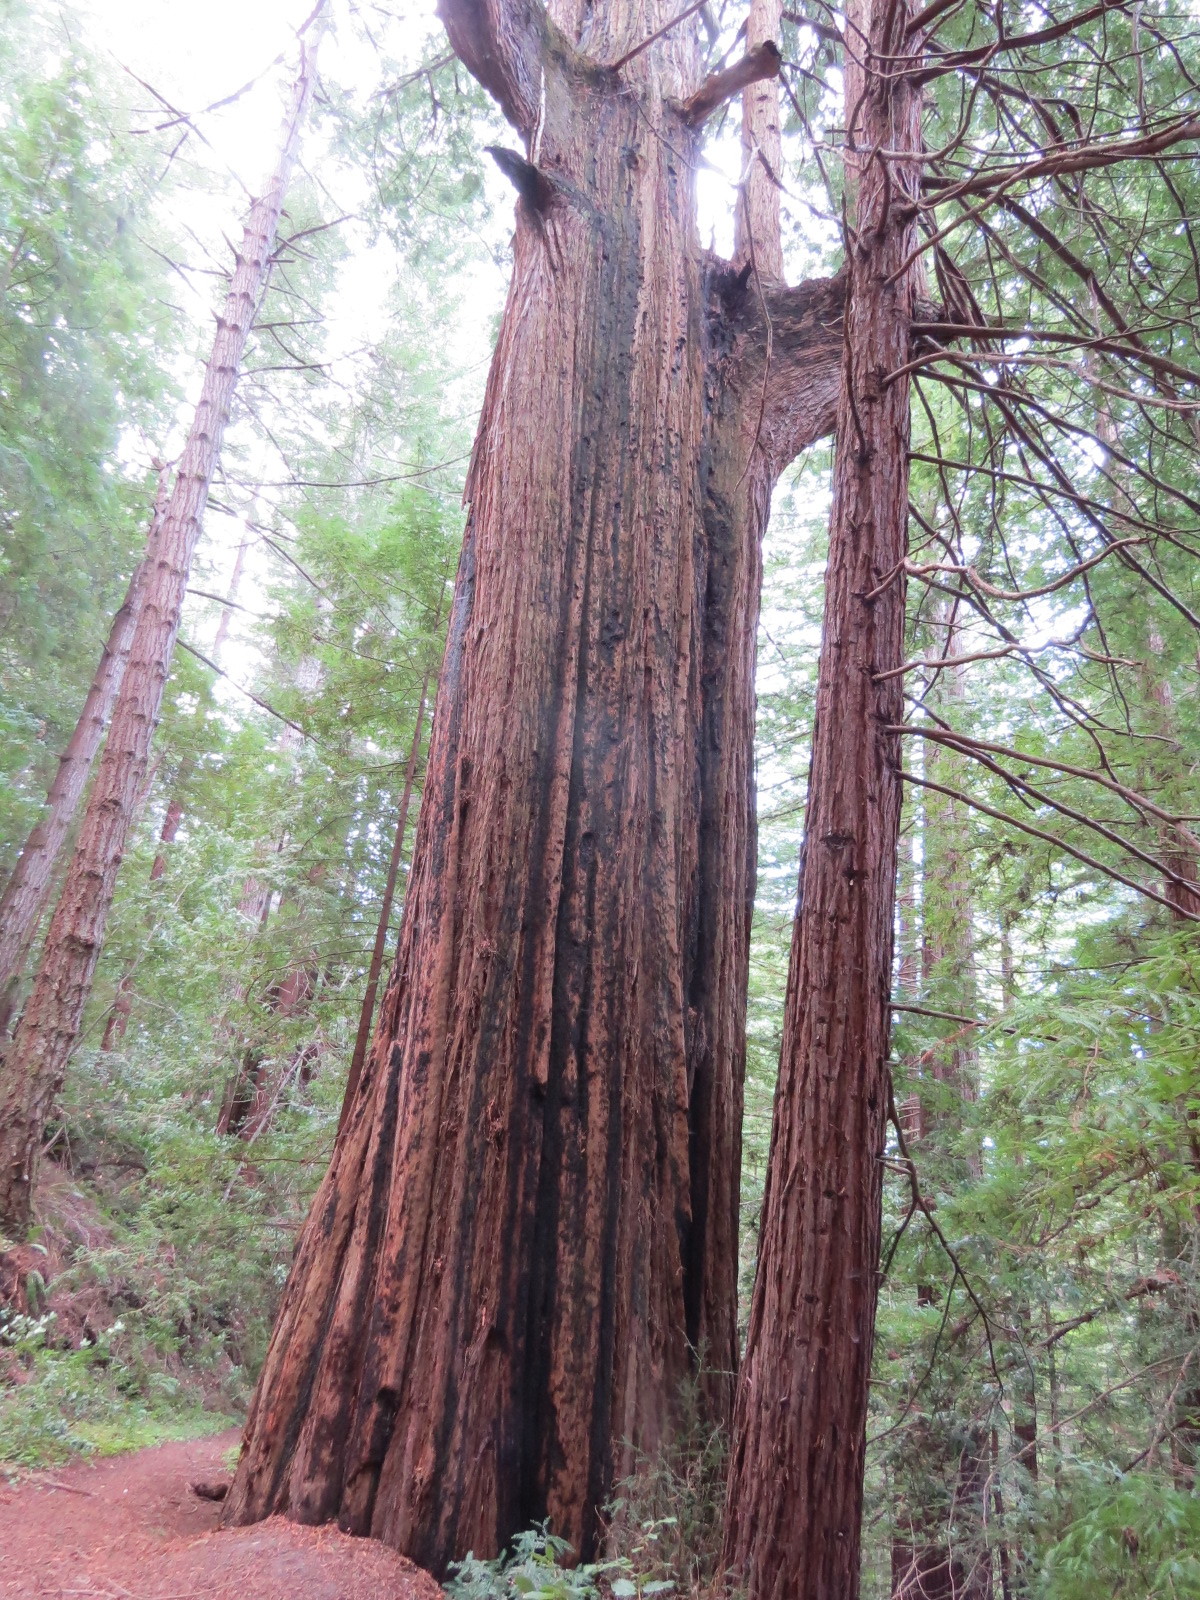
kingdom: Plantae
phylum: Tracheophyta
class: Pinopsida
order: Pinales
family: Cupressaceae
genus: Sequoia
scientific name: Sequoia sempervirens
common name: Coast redwood
